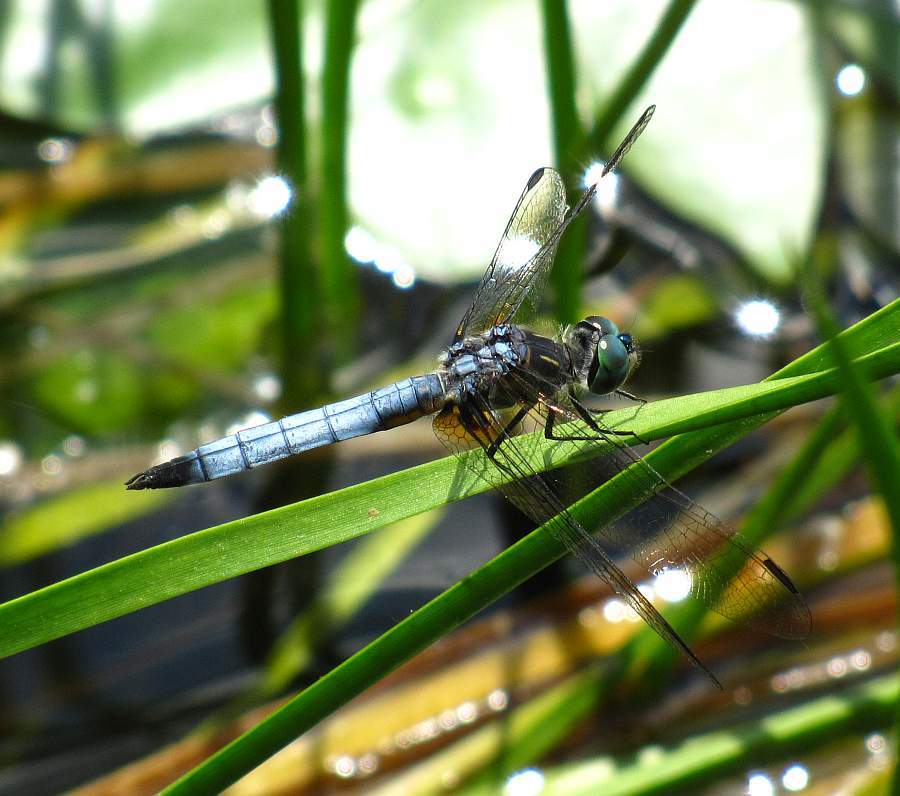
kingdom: Animalia
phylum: Arthropoda
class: Insecta
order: Odonata
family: Libellulidae
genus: Pachydiplax
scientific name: Pachydiplax longipennis
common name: Blue dasher
